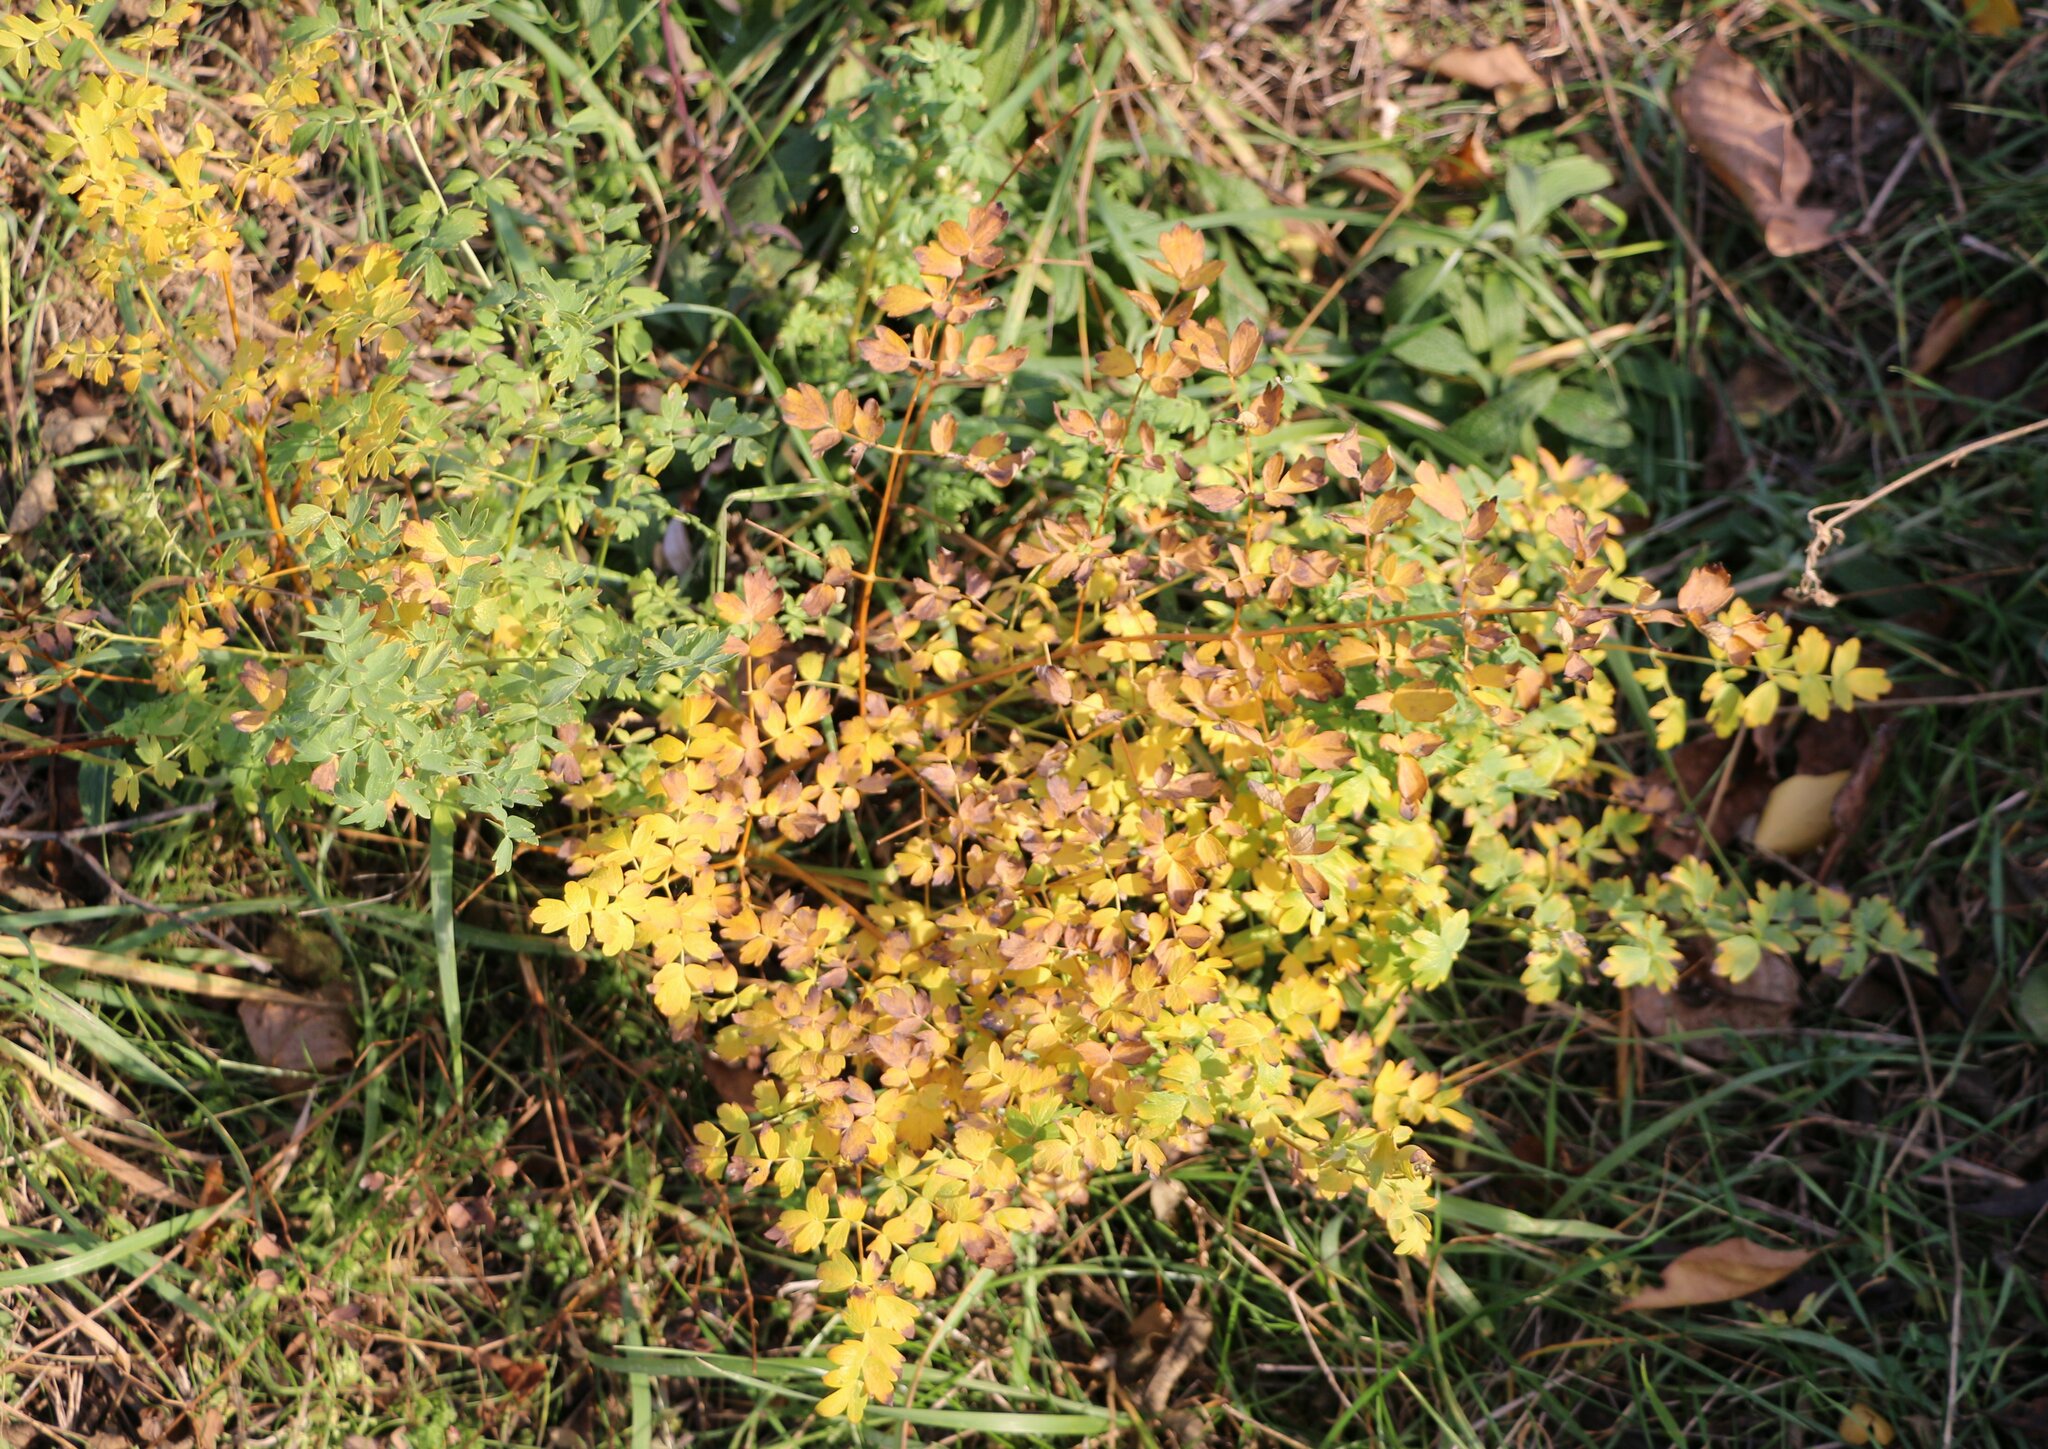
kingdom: Plantae
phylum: Tracheophyta
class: Magnoliopsida
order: Ranunculales
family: Ranunculaceae
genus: Thalictrum
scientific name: Thalictrum minus
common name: Lesser meadow-rue
